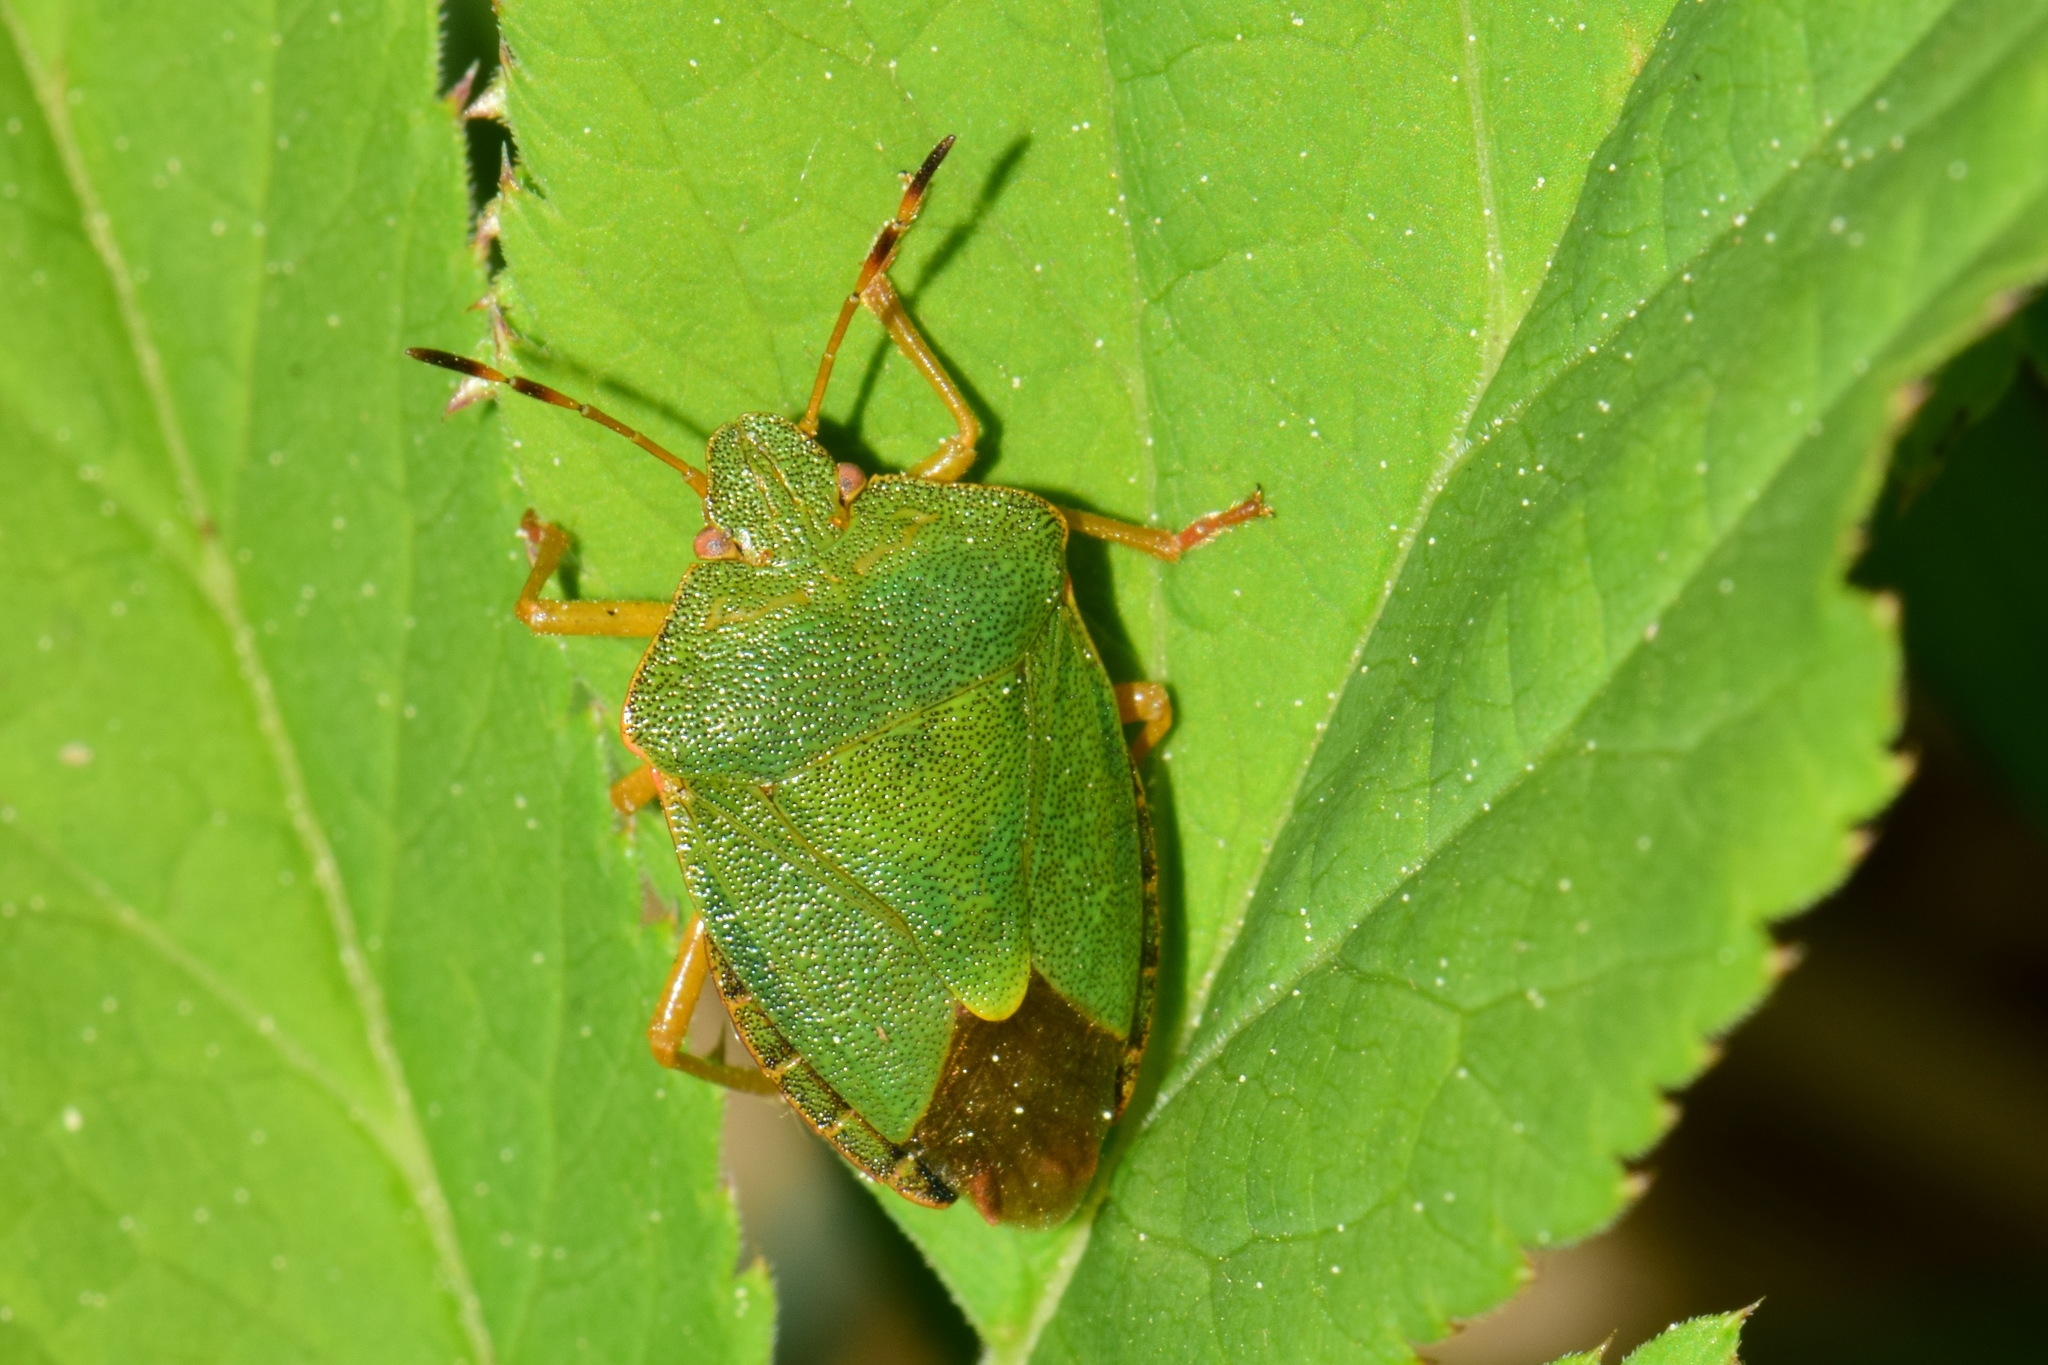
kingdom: Animalia
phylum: Arthropoda
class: Insecta
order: Hemiptera
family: Pentatomidae
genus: Palomena
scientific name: Palomena prasina
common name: Green shieldbug
